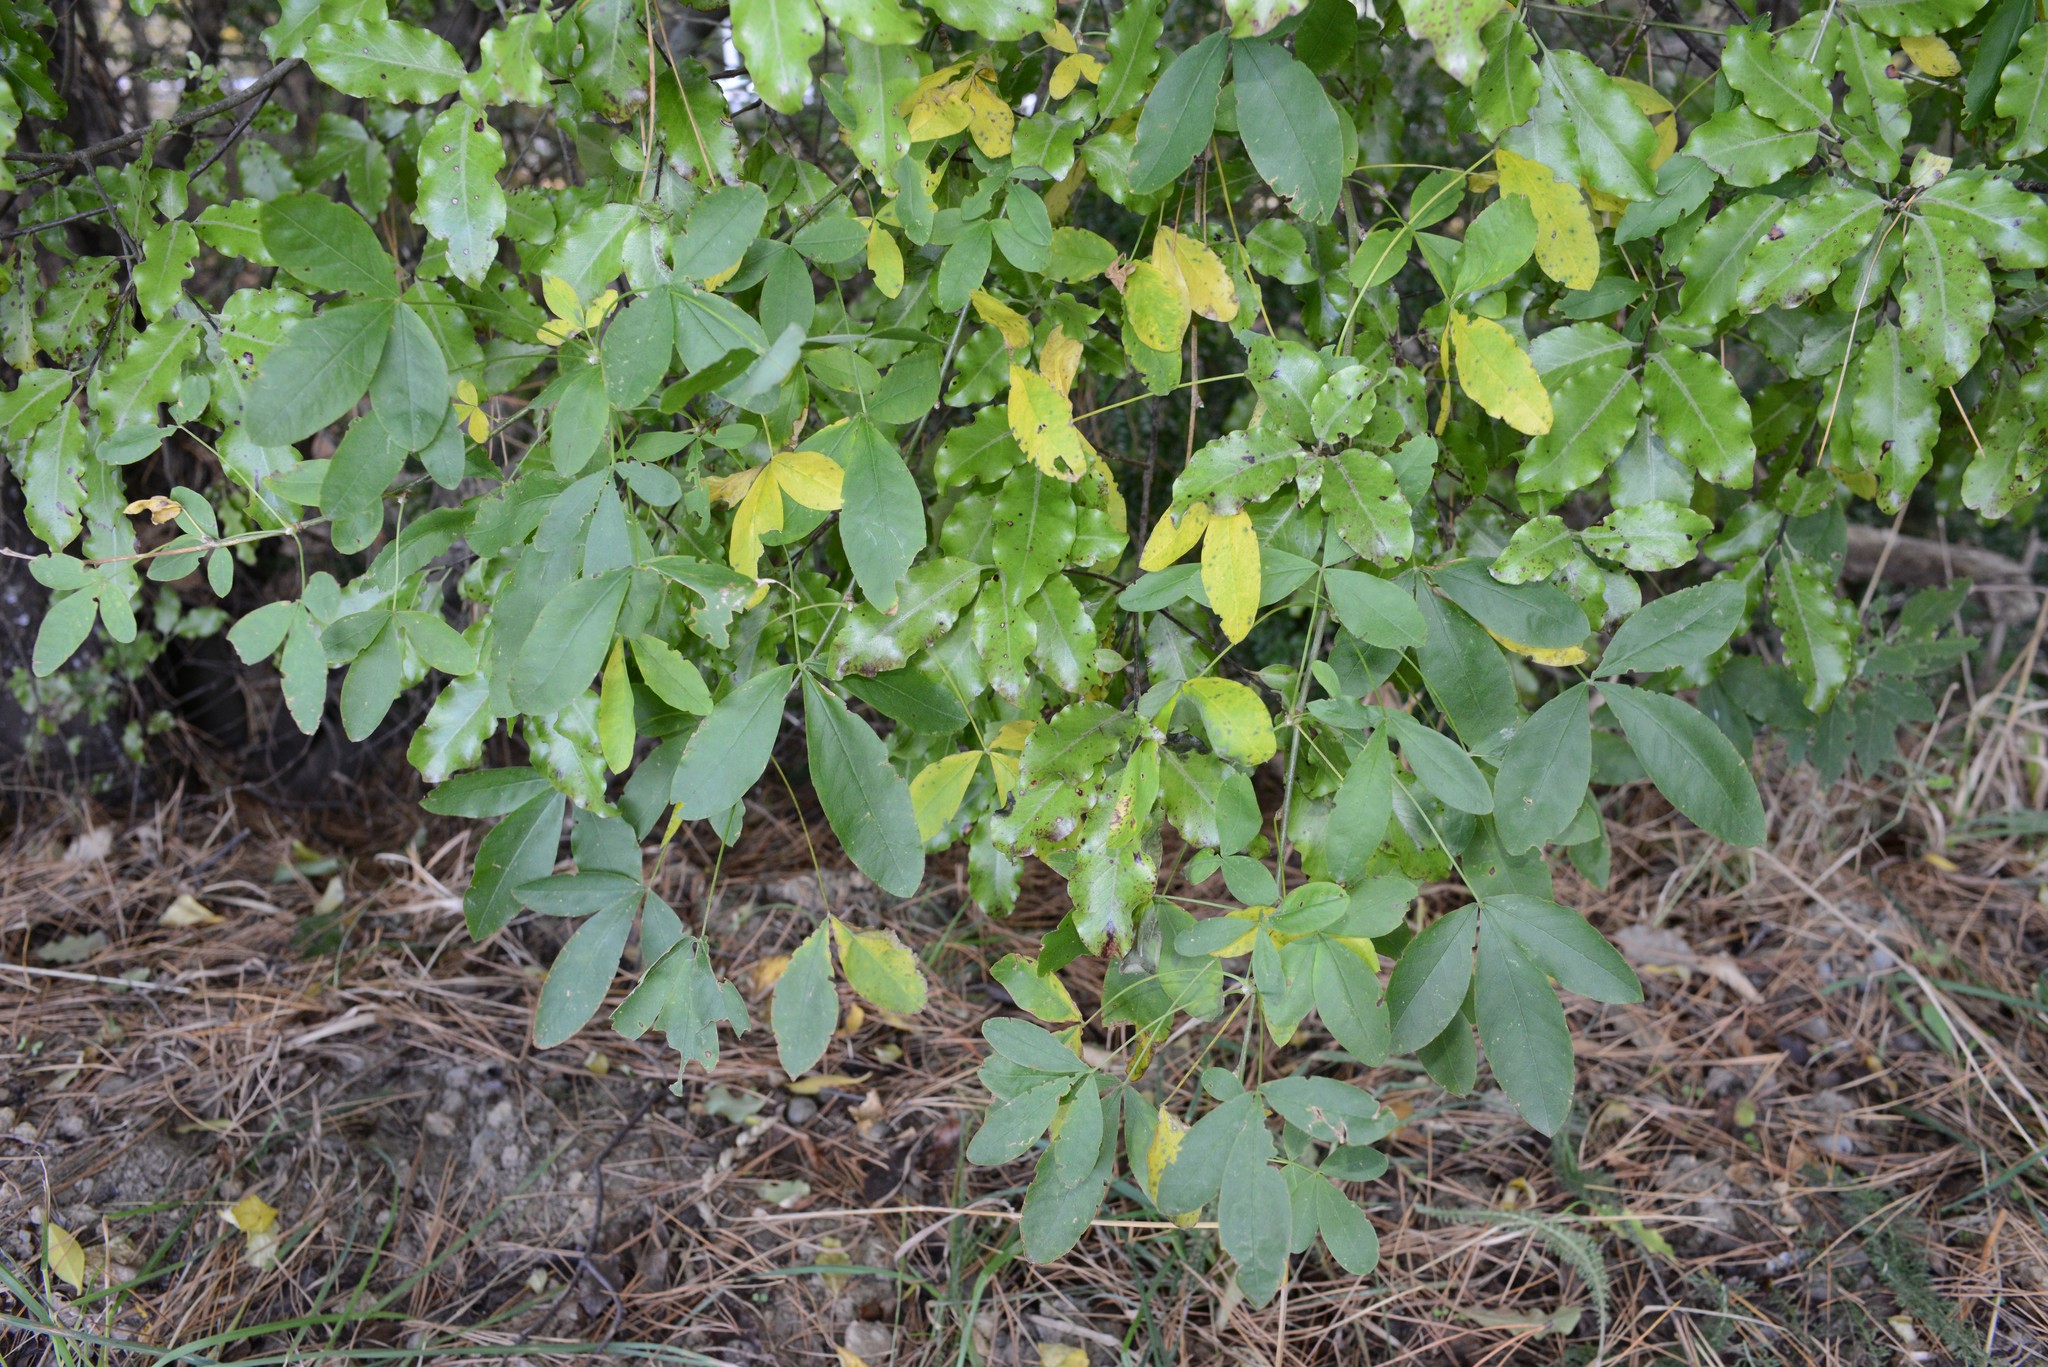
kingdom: Plantae
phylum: Tracheophyta
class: Magnoliopsida
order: Fabales
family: Fabaceae
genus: Laburnum
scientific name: Laburnum anagyroides
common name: Laburnum
